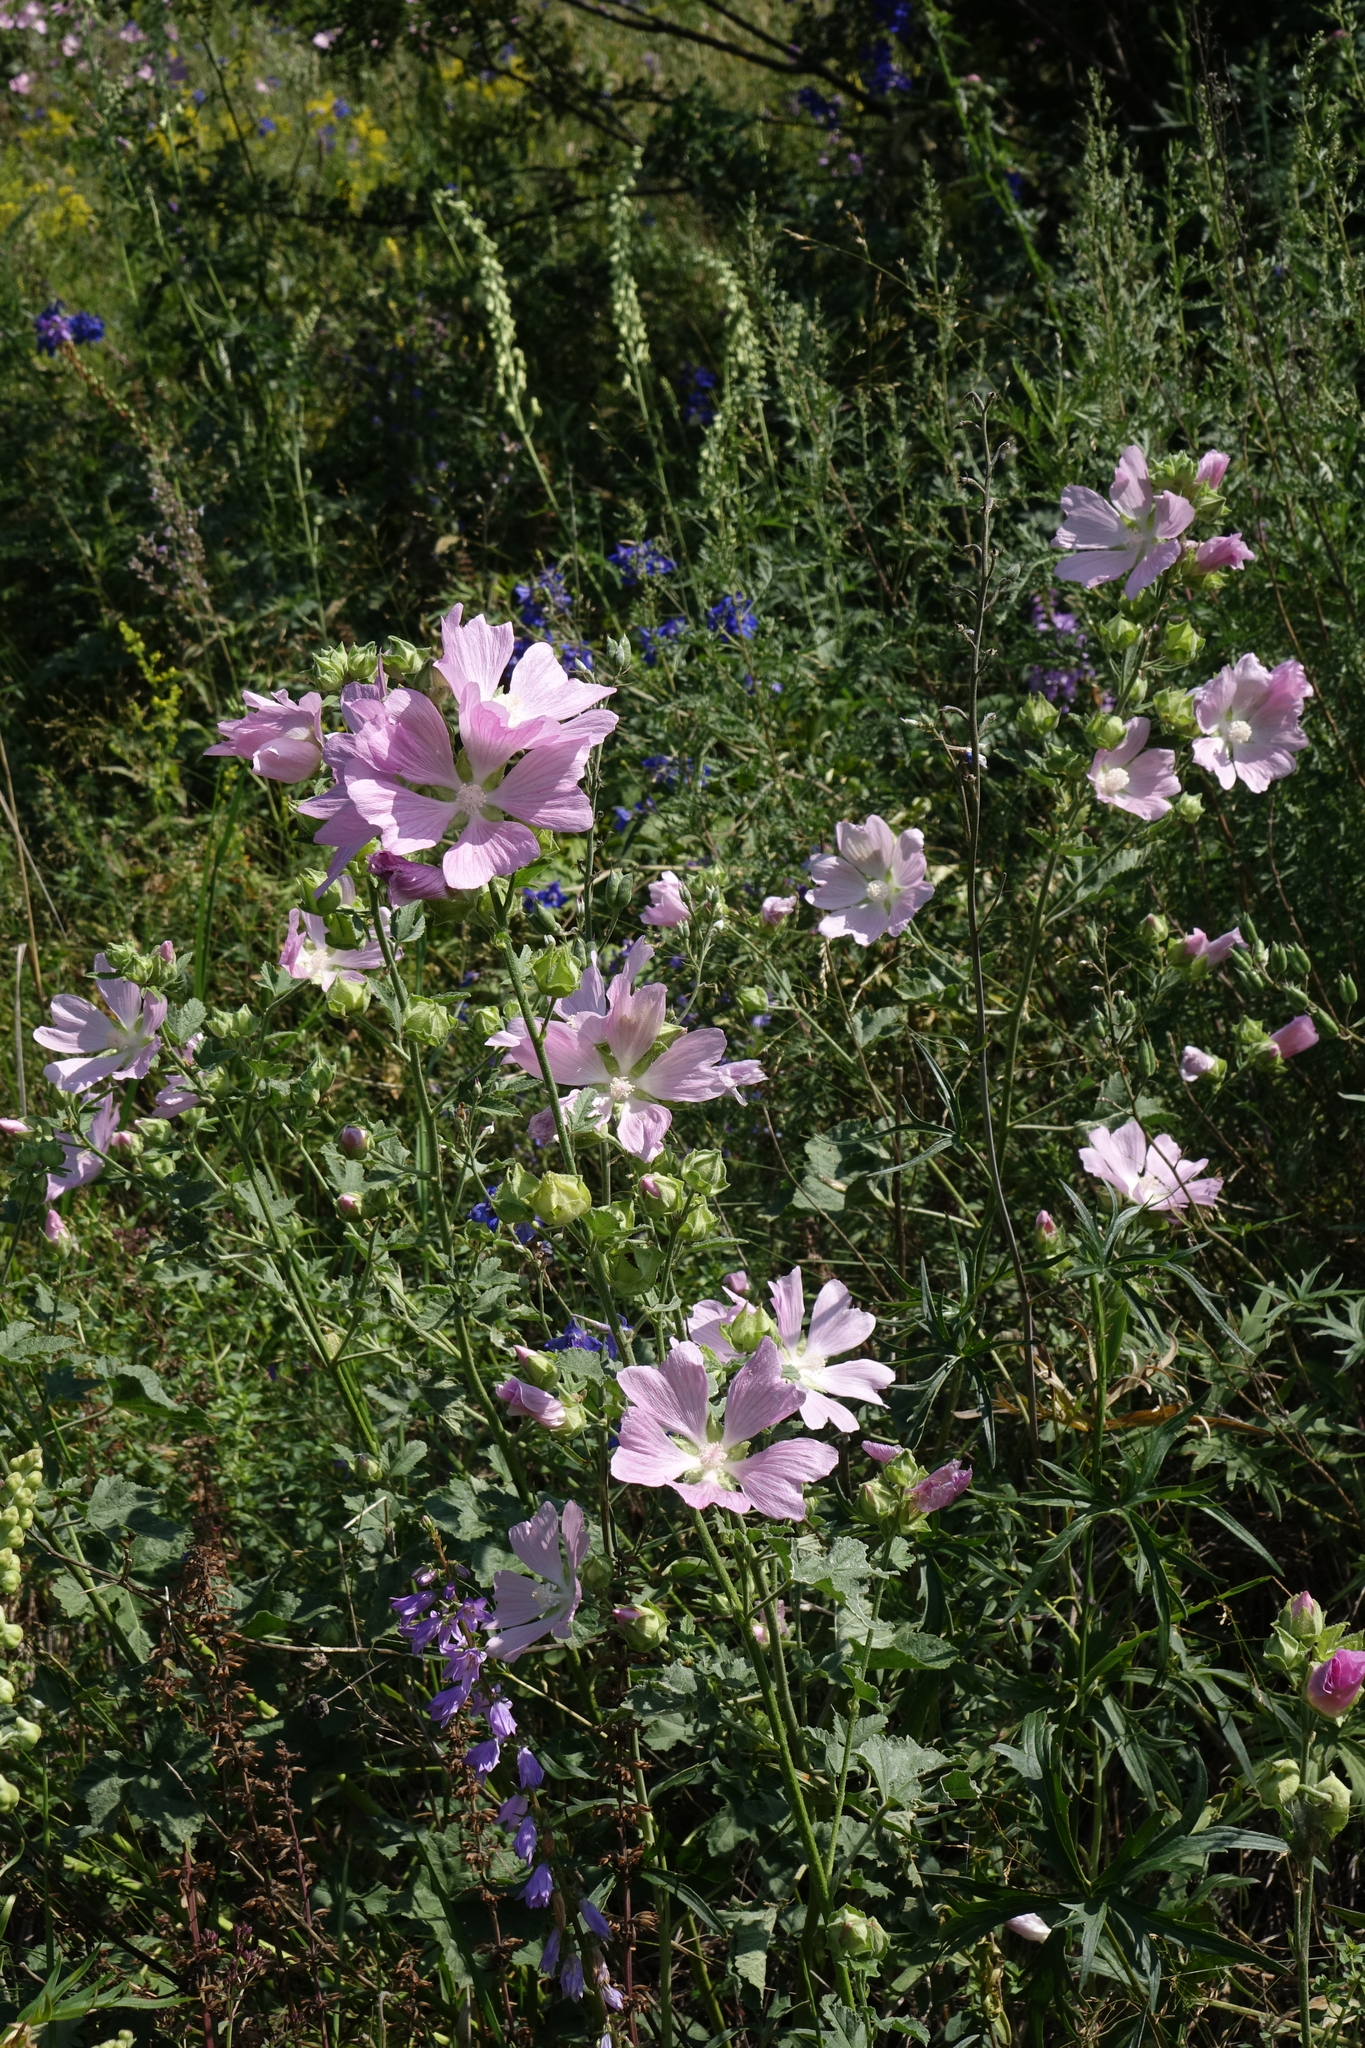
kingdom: Plantae
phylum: Tracheophyta
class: Magnoliopsida
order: Malvales
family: Malvaceae
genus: Malva
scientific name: Malva thuringiaca
